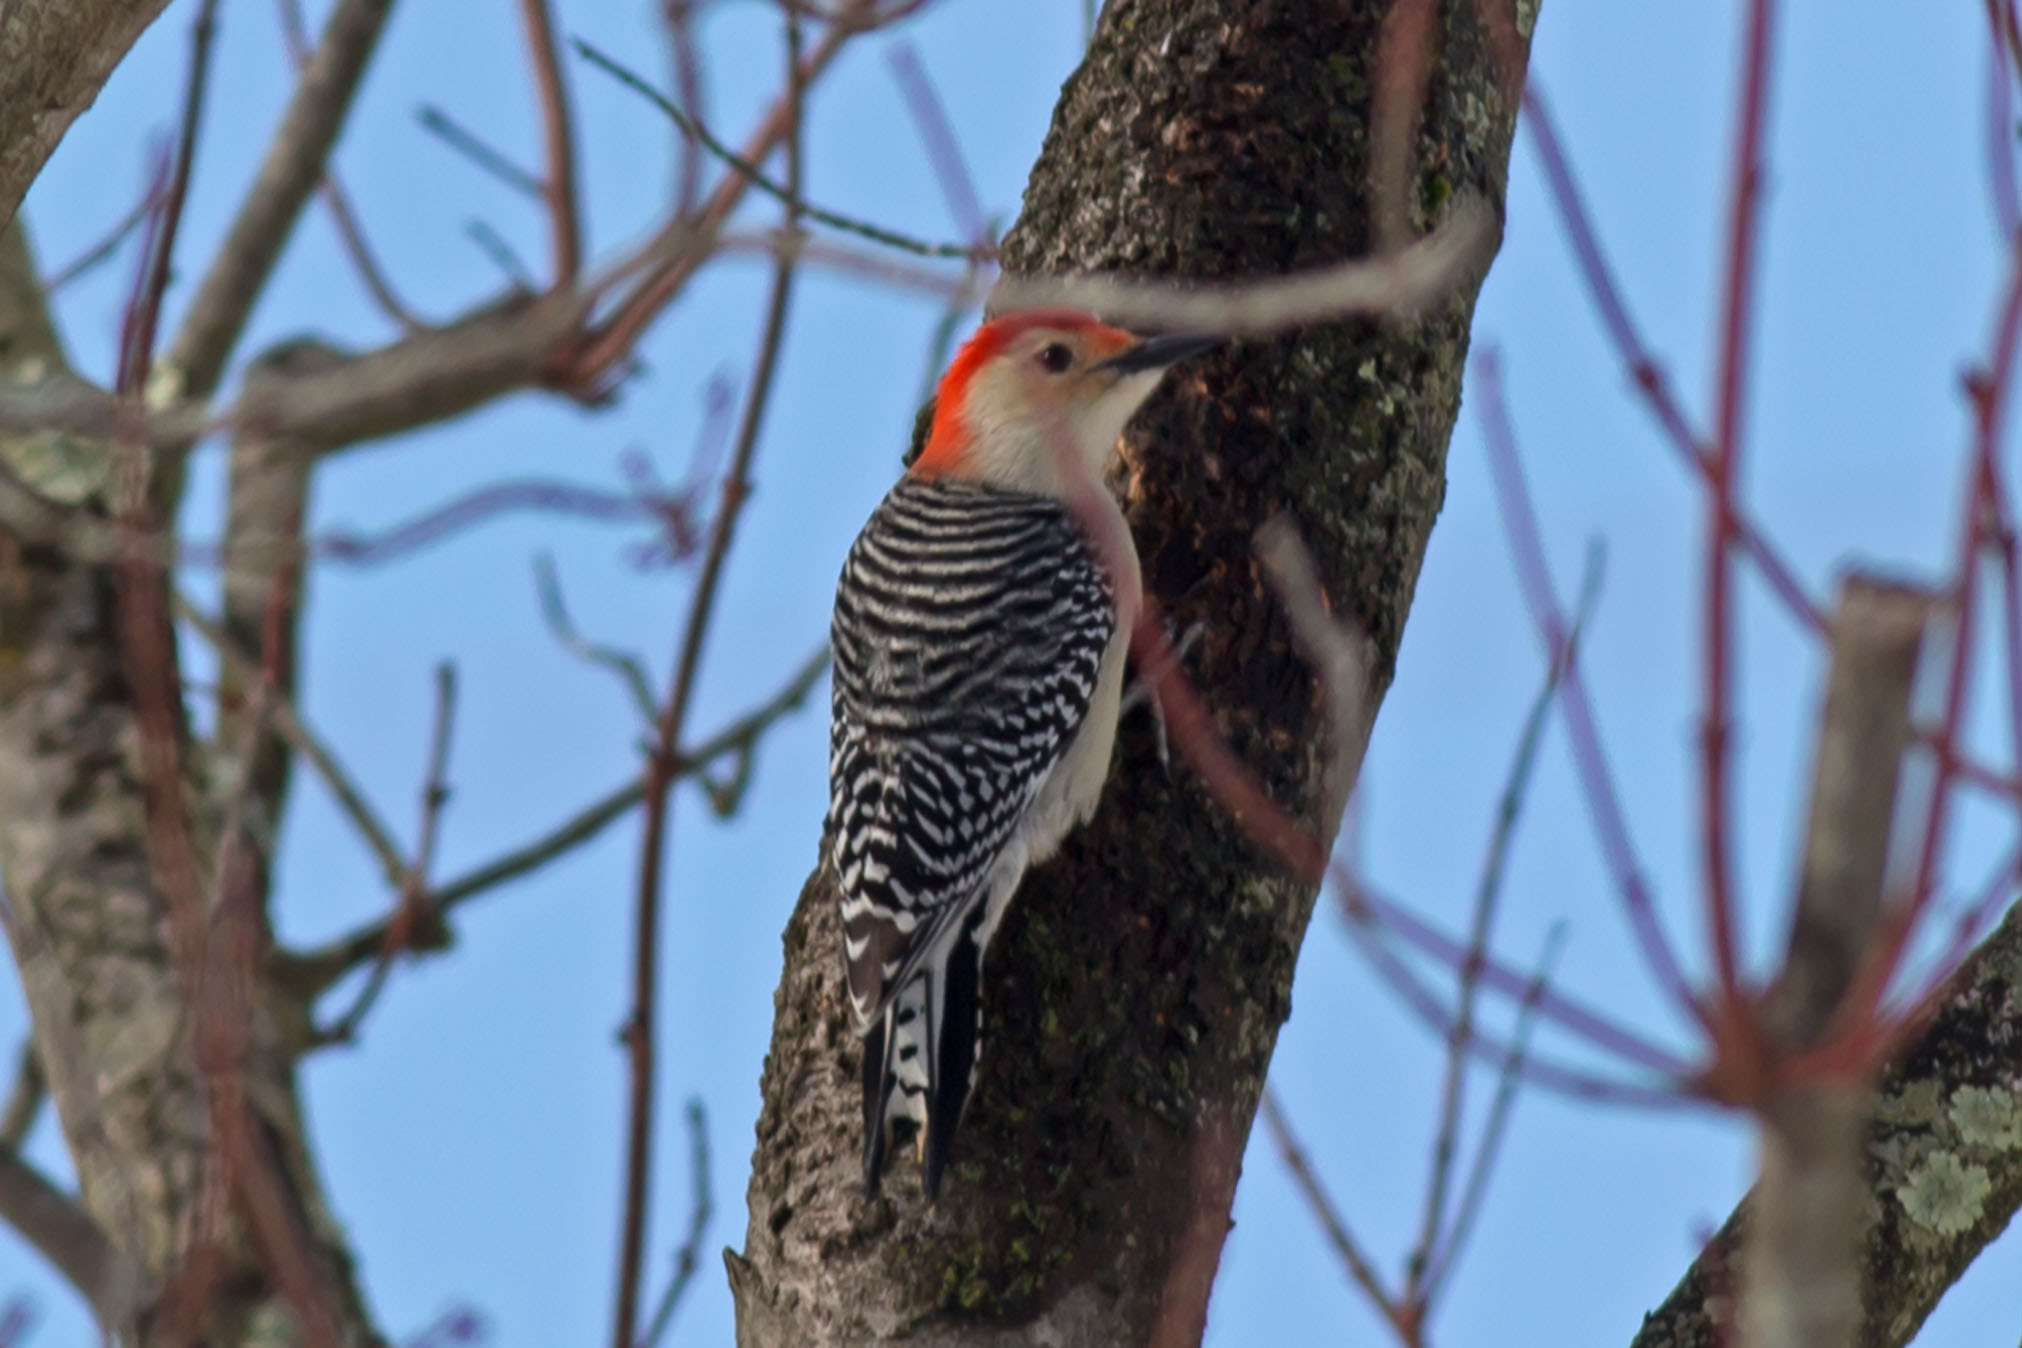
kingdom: Animalia
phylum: Chordata
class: Aves
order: Piciformes
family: Picidae
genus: Melanerpes
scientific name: Melanerpes carolinus
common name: Red-bellied woodpecker
